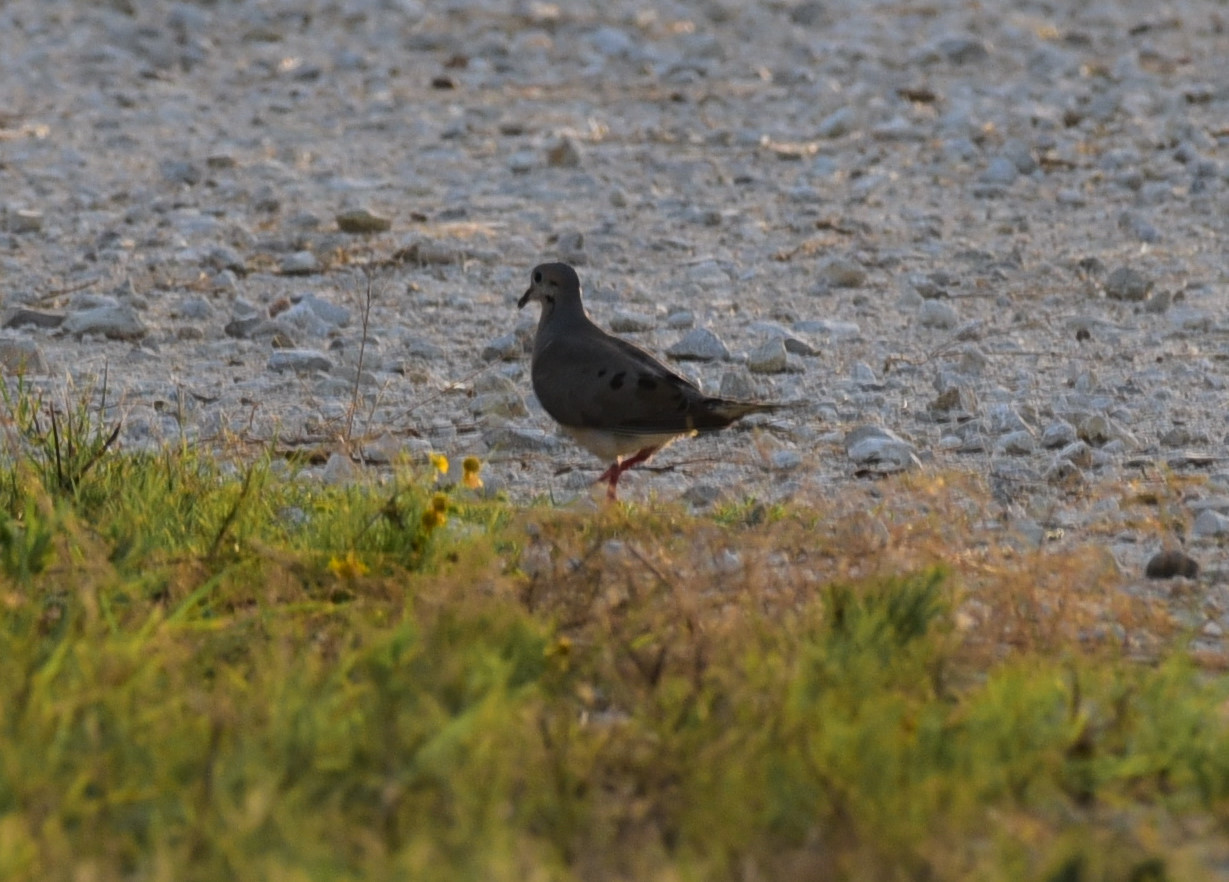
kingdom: Animalia
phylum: Chordata
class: Aves
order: Columbiformes
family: Columbidae
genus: Zenaida
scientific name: Zenaida macroura
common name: Mourning dove
